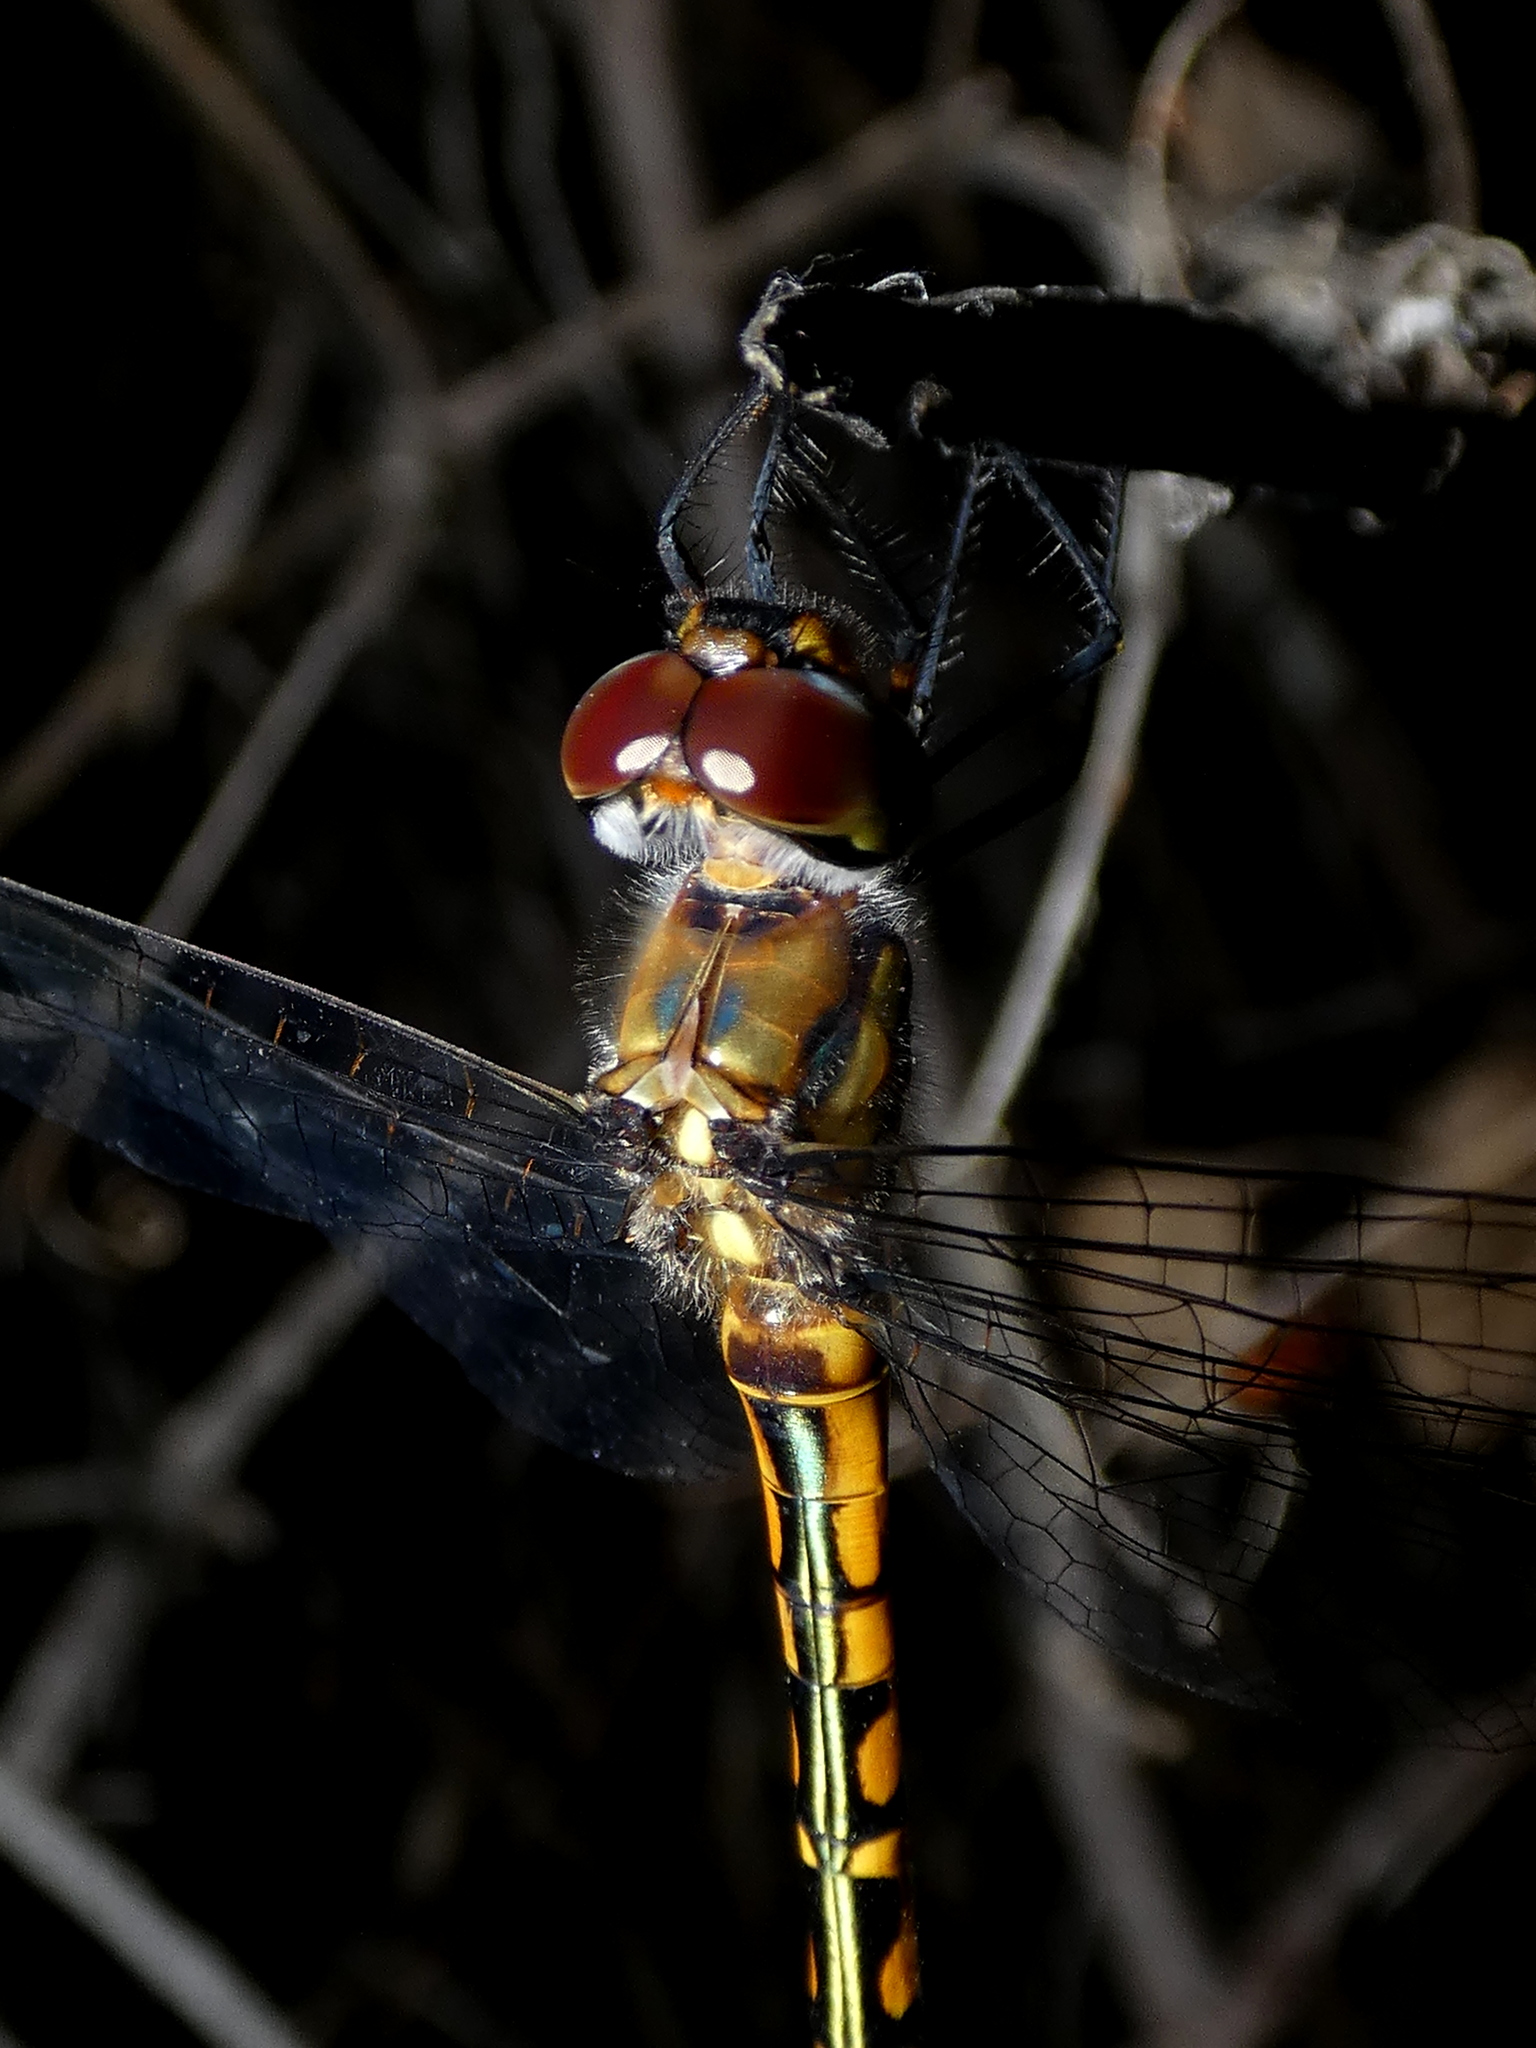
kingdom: Animalia
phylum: Arthropoda
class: Insecta
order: Odonata
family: Corduliidae
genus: Hemicordulia
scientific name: Hemicordulia australiae
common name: Sentry dragonfly
